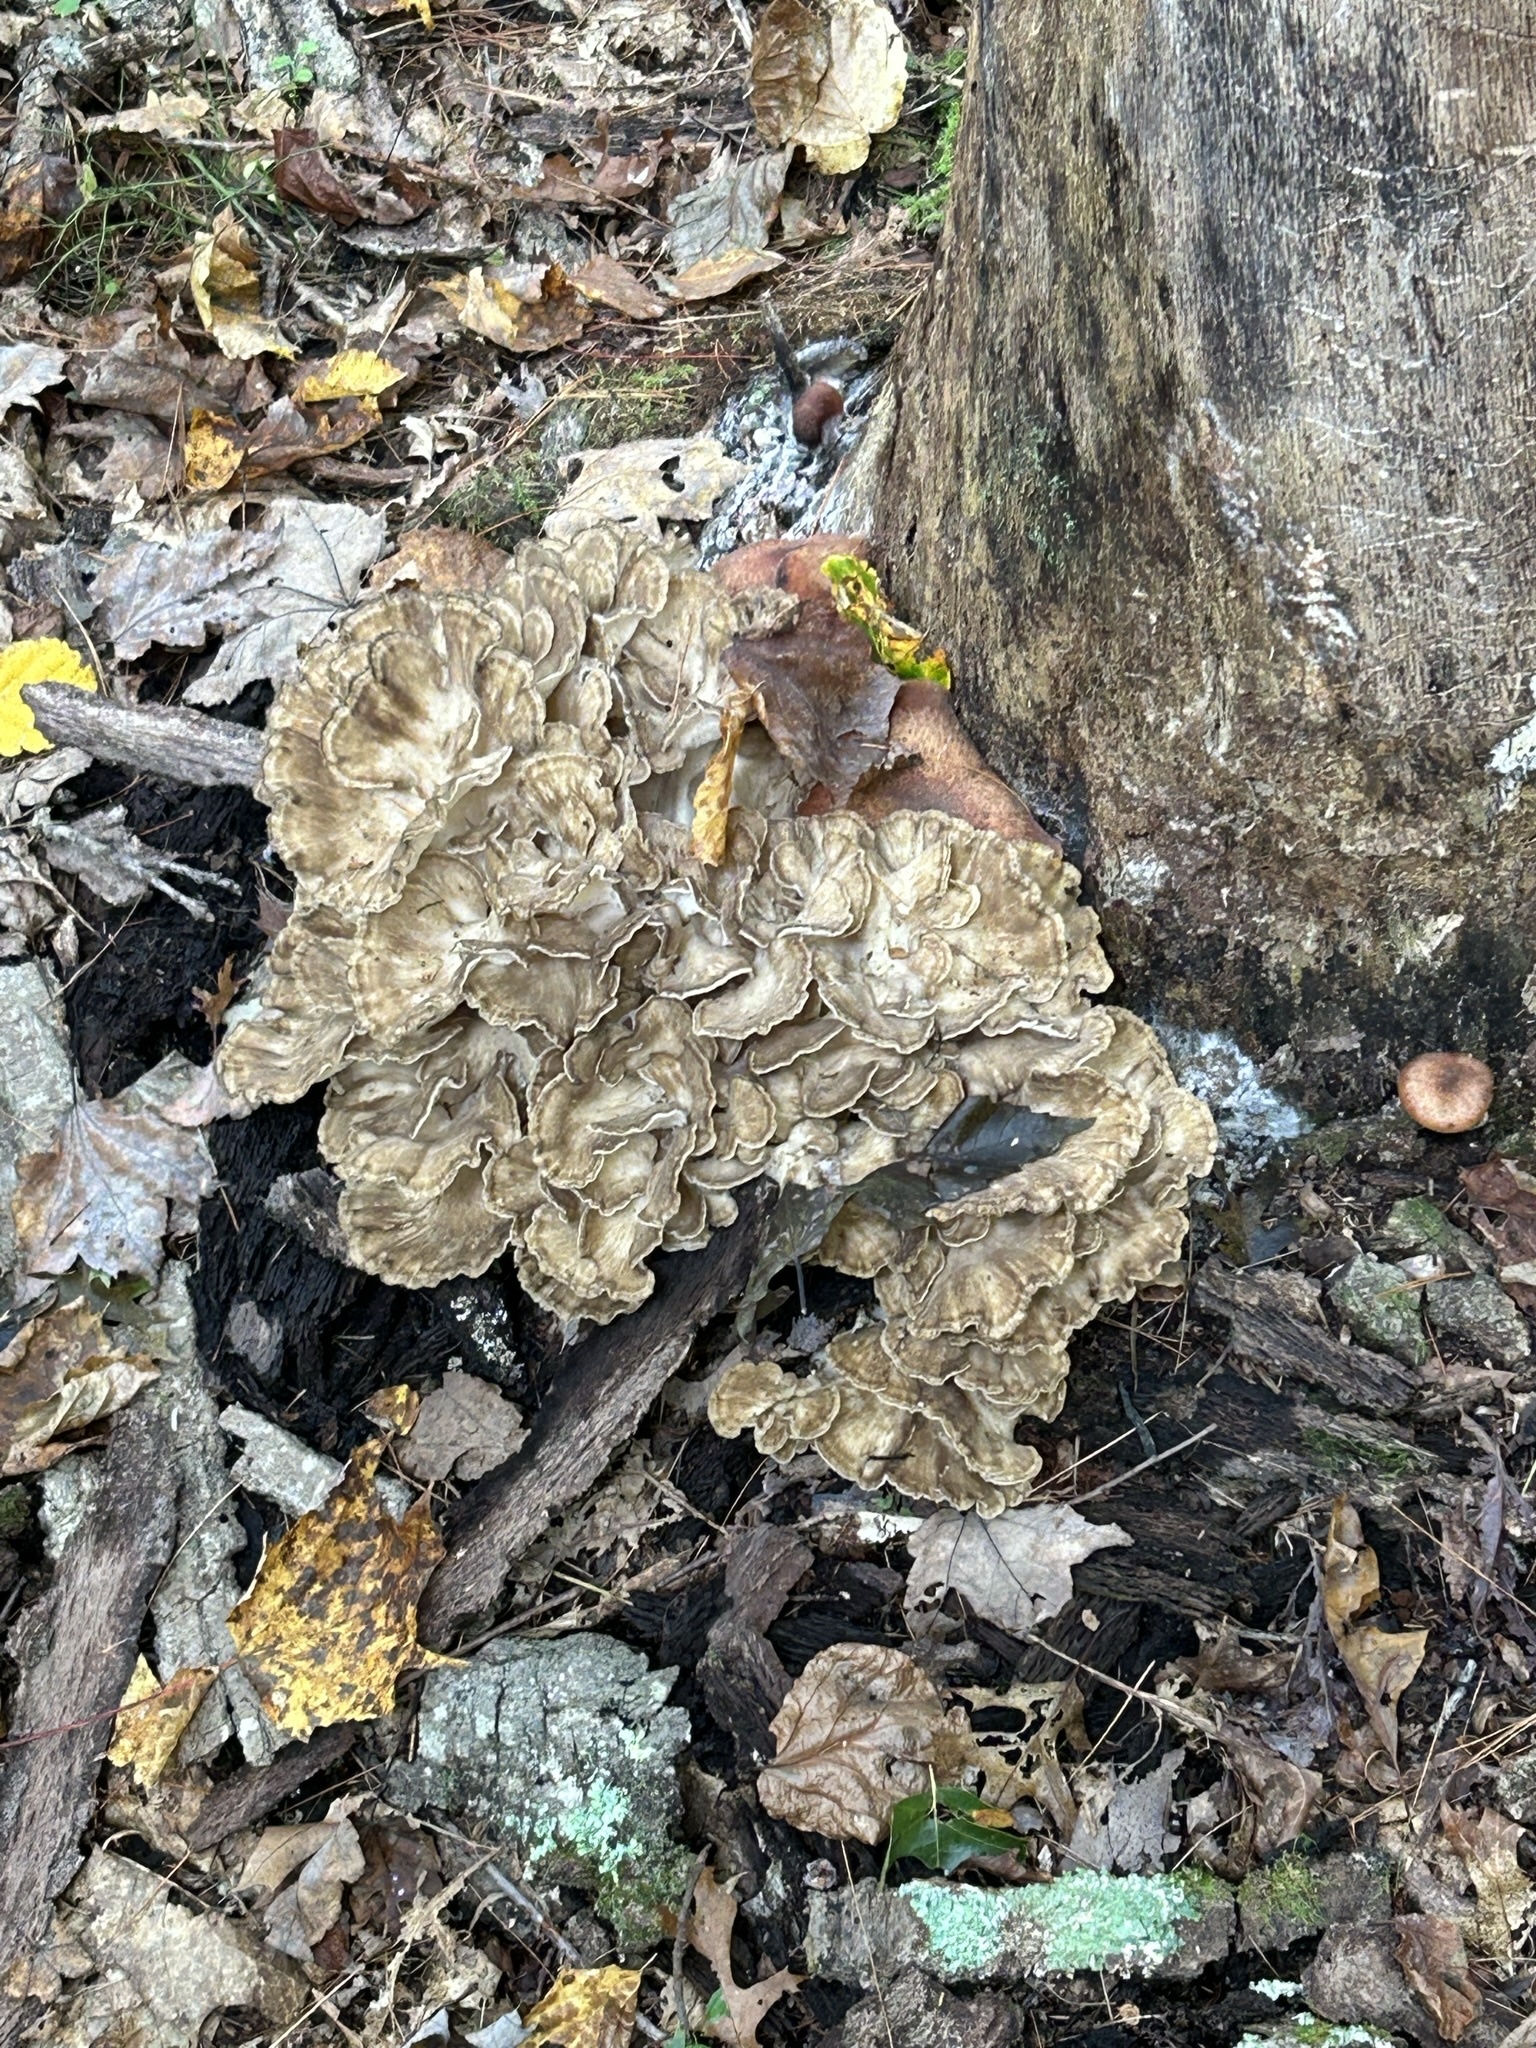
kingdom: Fungi
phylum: Basidiomycota
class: Agaricomycetes
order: Polyporales
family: Grifolaceae
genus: Grifola
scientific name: Grifola frondosa
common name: Hen of the woods
